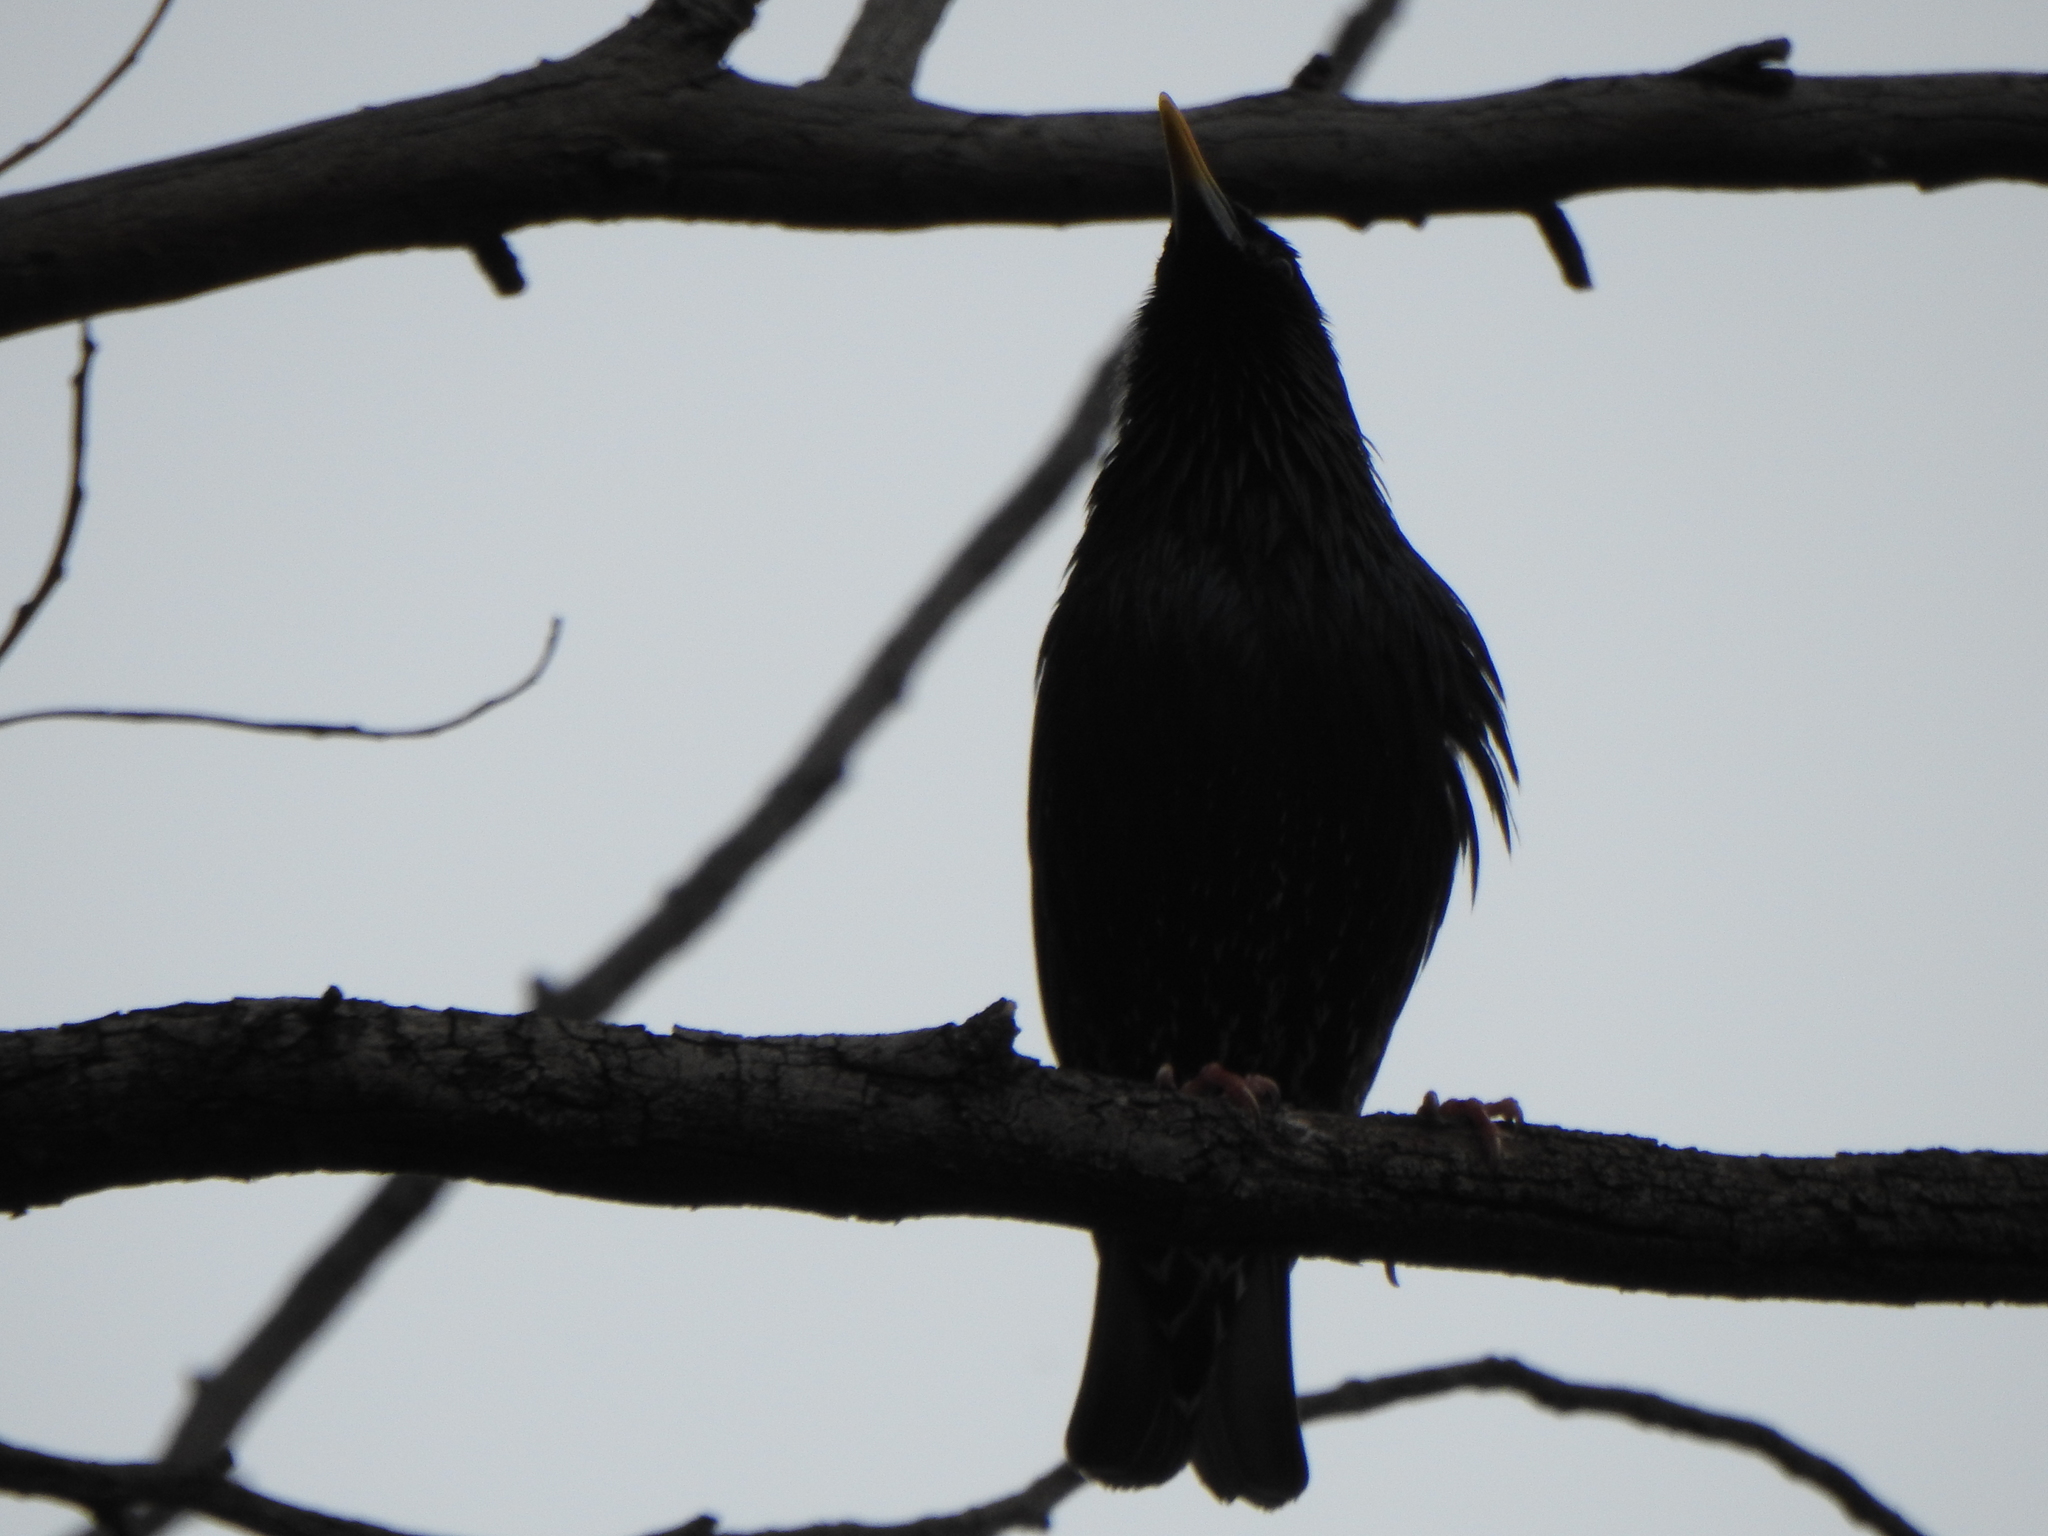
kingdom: Animalia
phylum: Chordata
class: Aves
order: Passeriformes
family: Sturnidae
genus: Sturnus
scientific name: Sturnus vulgaris
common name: Common starling
